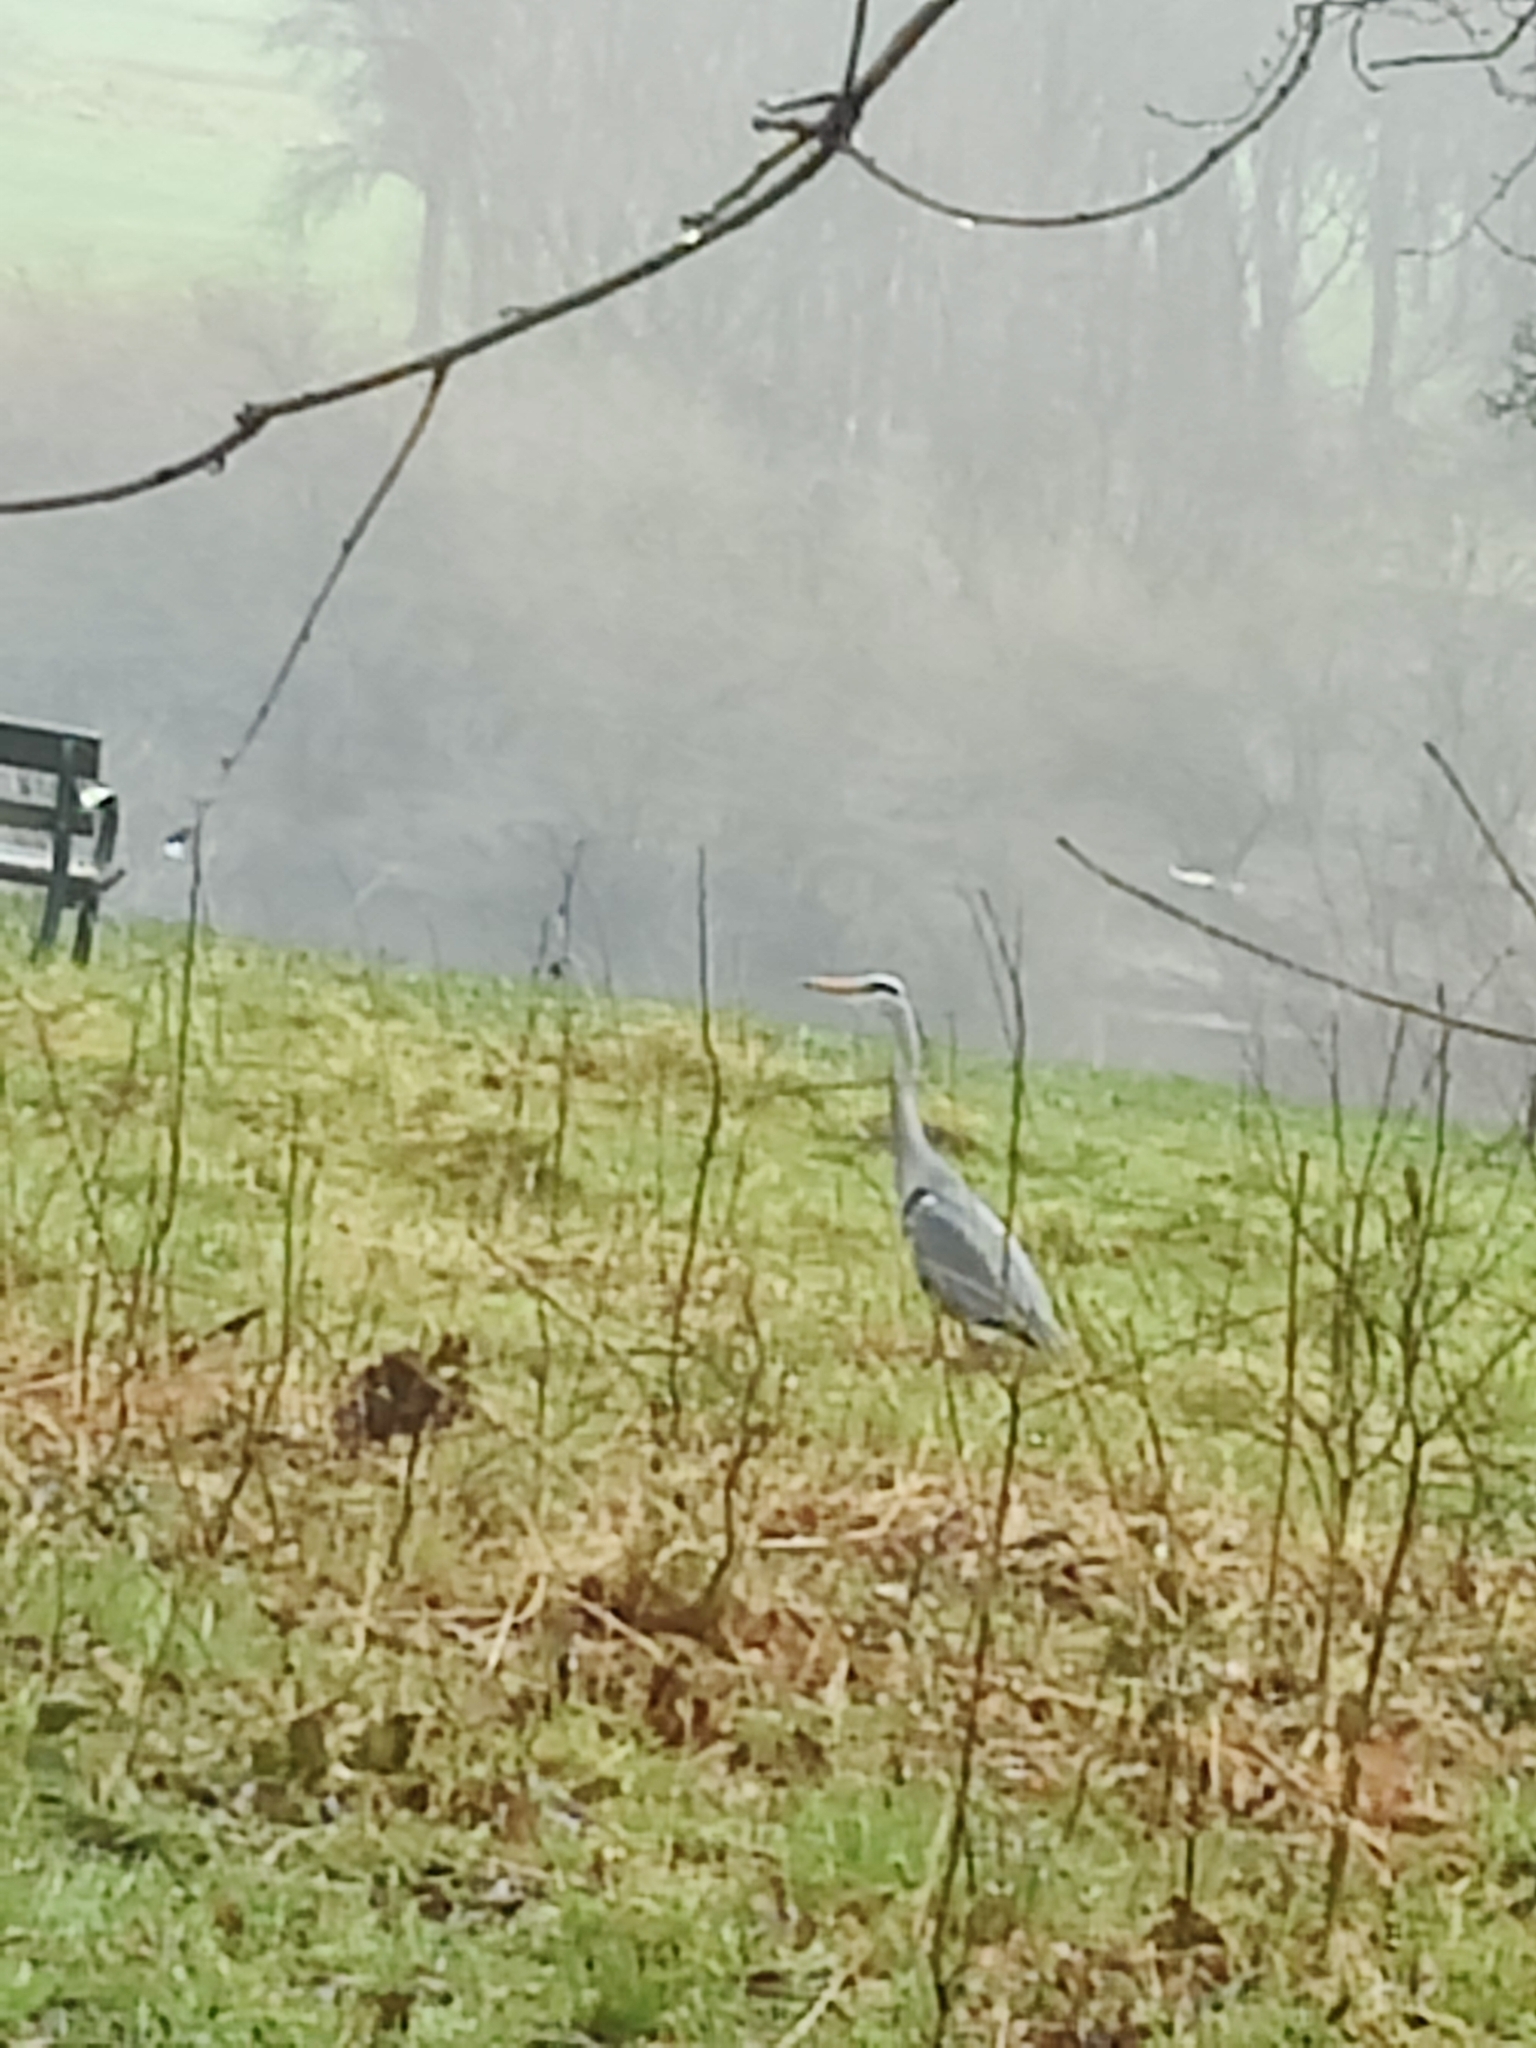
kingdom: Animalia
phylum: Chordata
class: Aves
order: Pelecaniformes
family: Ardeidae
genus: Ardea
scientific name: Ardea cinerea
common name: Grey heron
